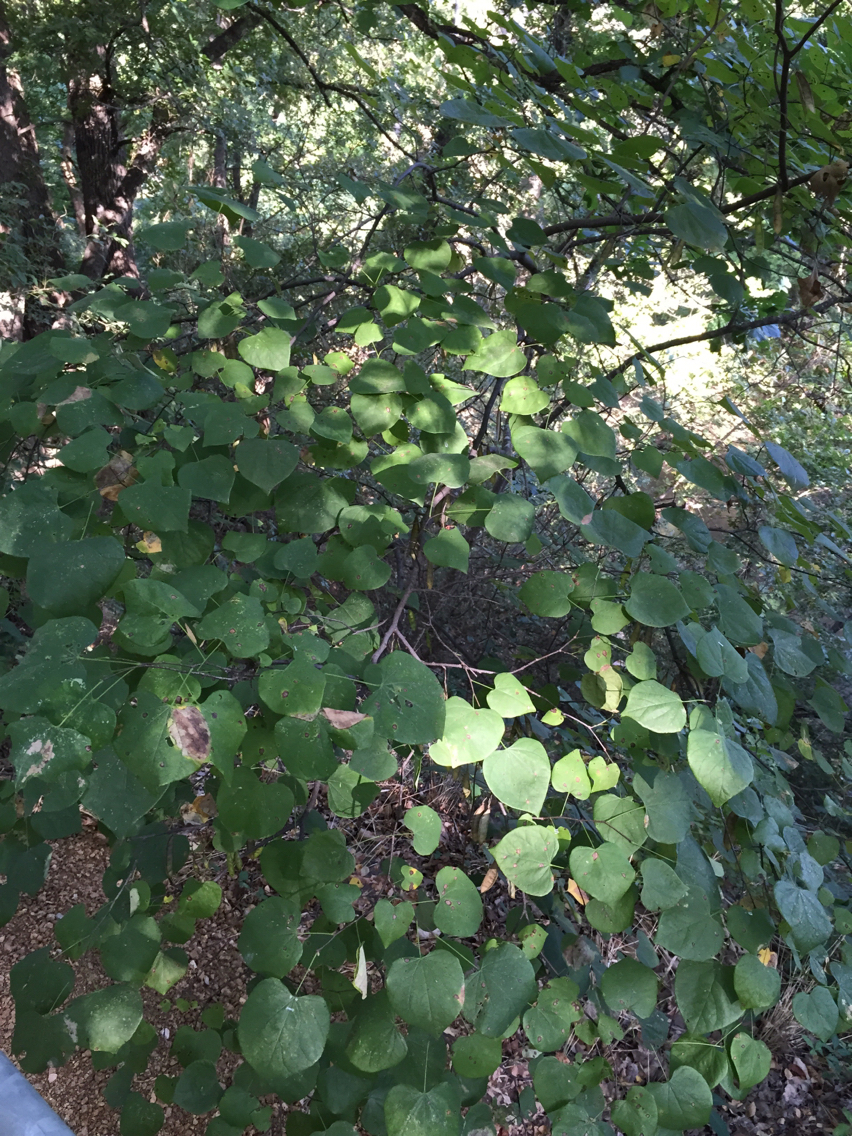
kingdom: Plantae
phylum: Tracheophyta
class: Magnoliopsida
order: Fabales
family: Fabaceae
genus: Cercis
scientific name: Cercis canadensis
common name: Eastern redbud
